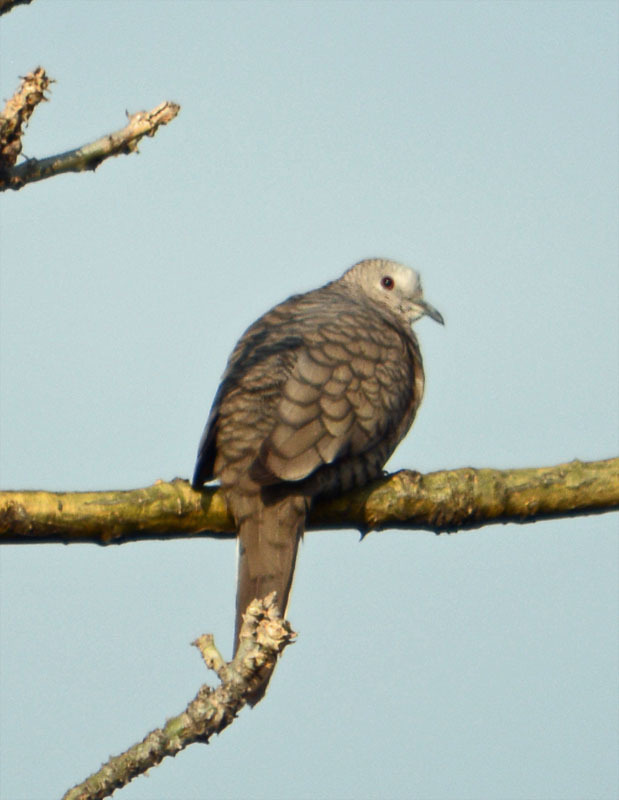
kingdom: Animalia
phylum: Chordata
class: Aves
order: Columbiformes
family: Columbidae
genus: Columbina
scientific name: Columbina inca
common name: Inca dove
